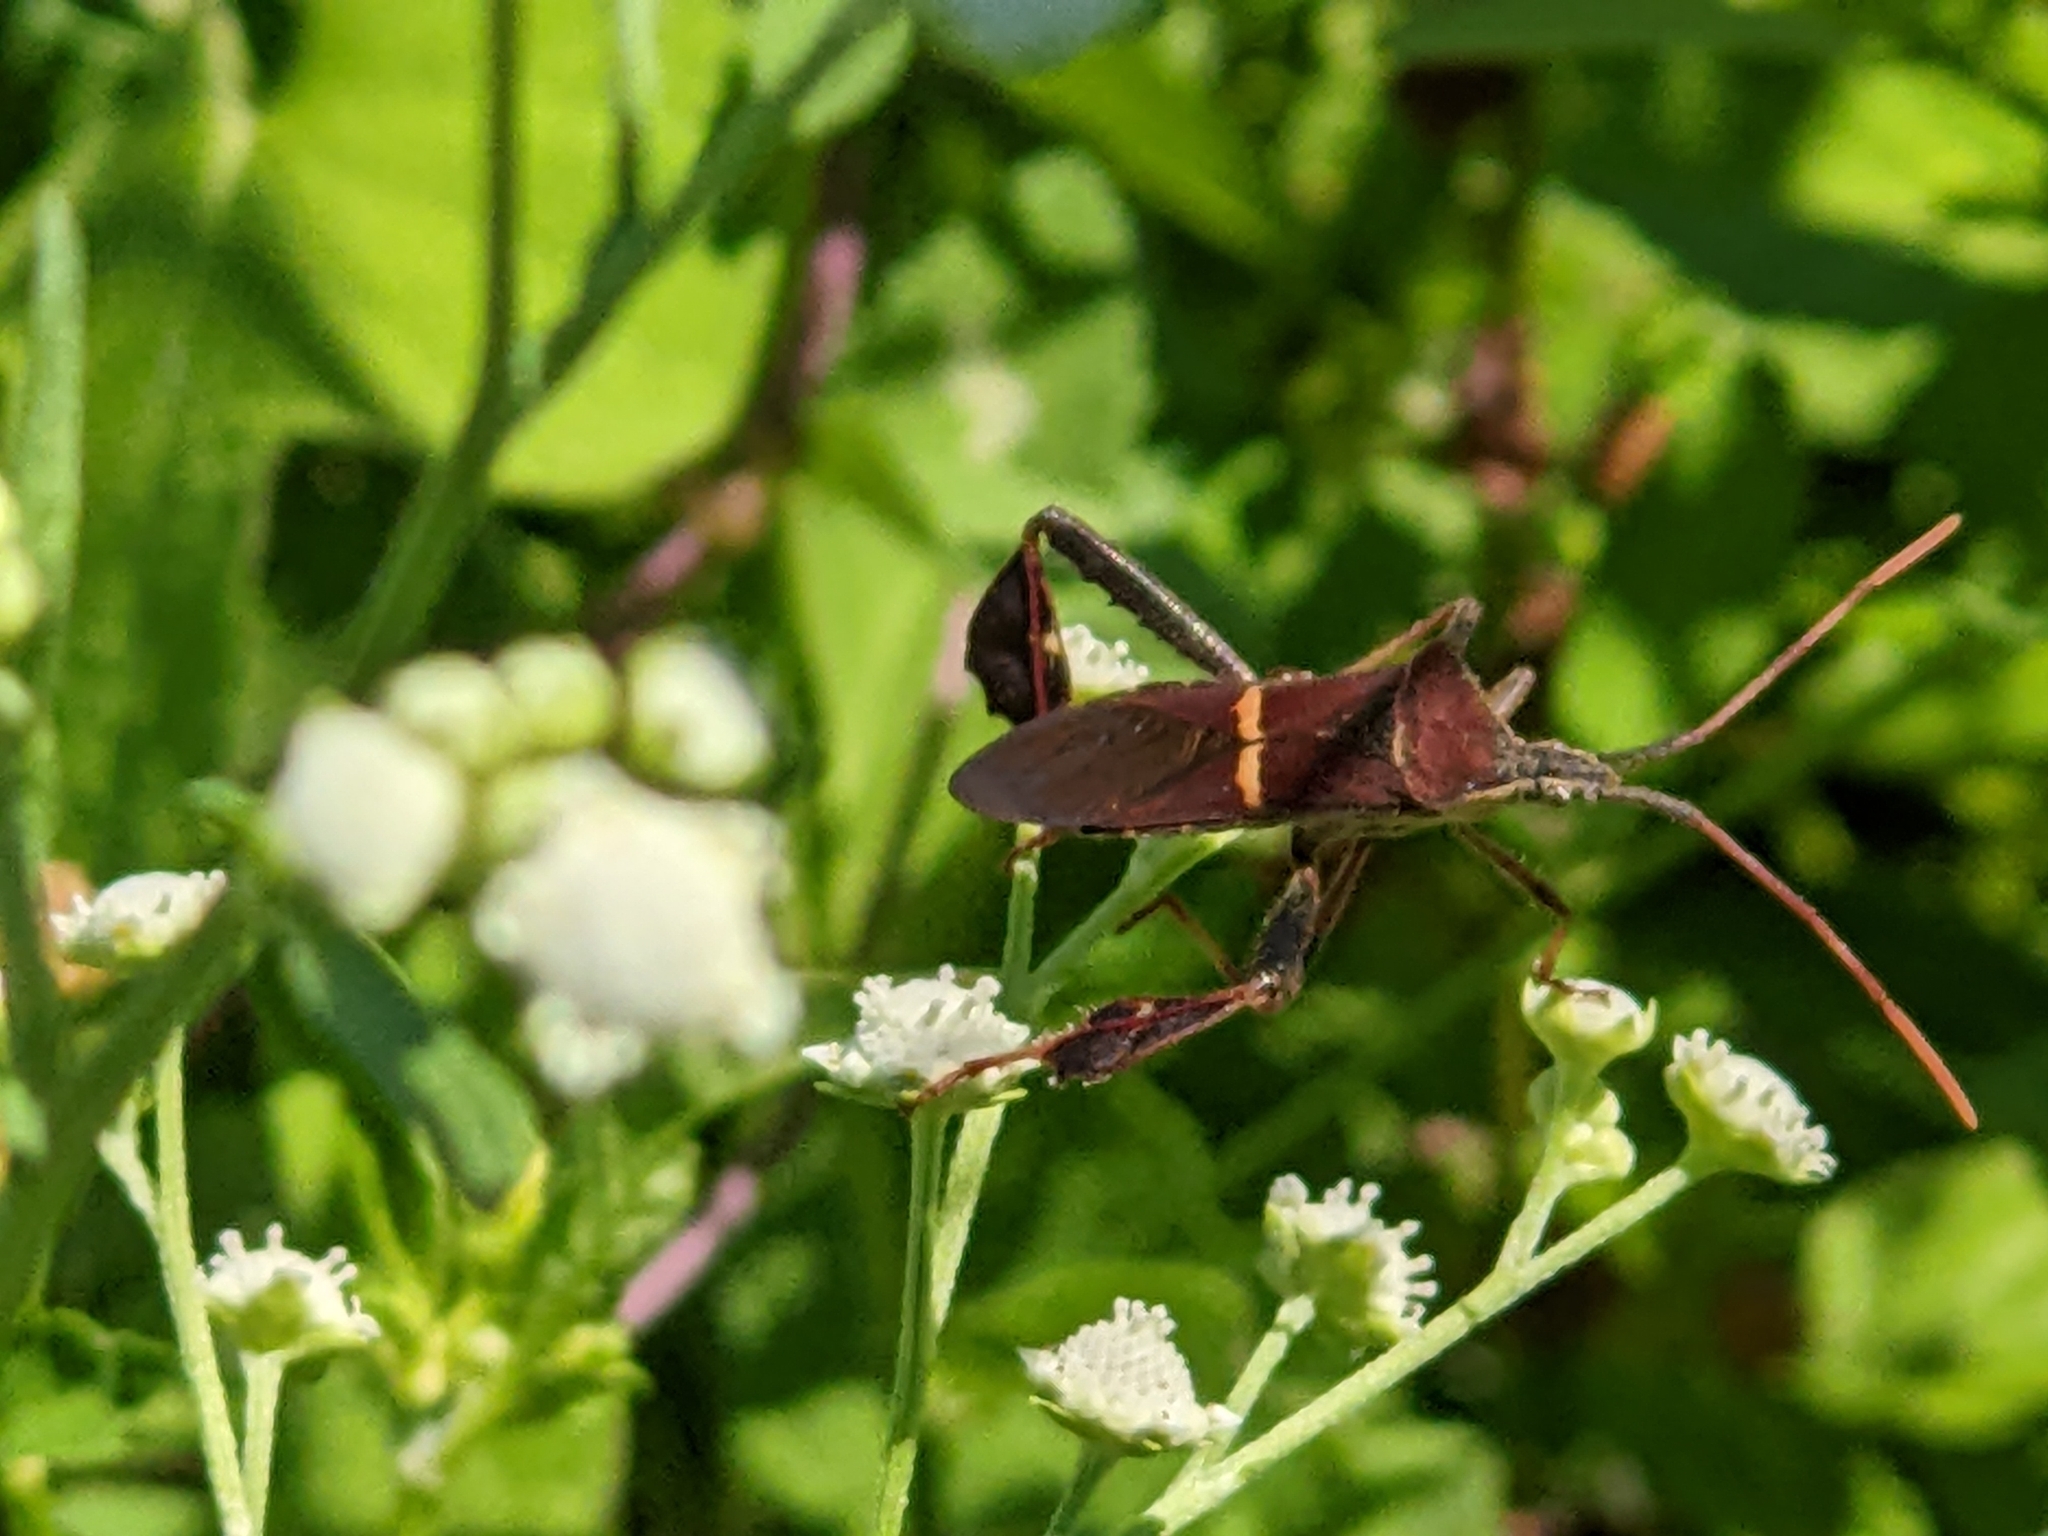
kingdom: Animalia
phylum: Arthropoda
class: Insecta
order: Hemiptera
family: Coreidae
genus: Leptoglossus
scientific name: Leptoglossus phyllopus
